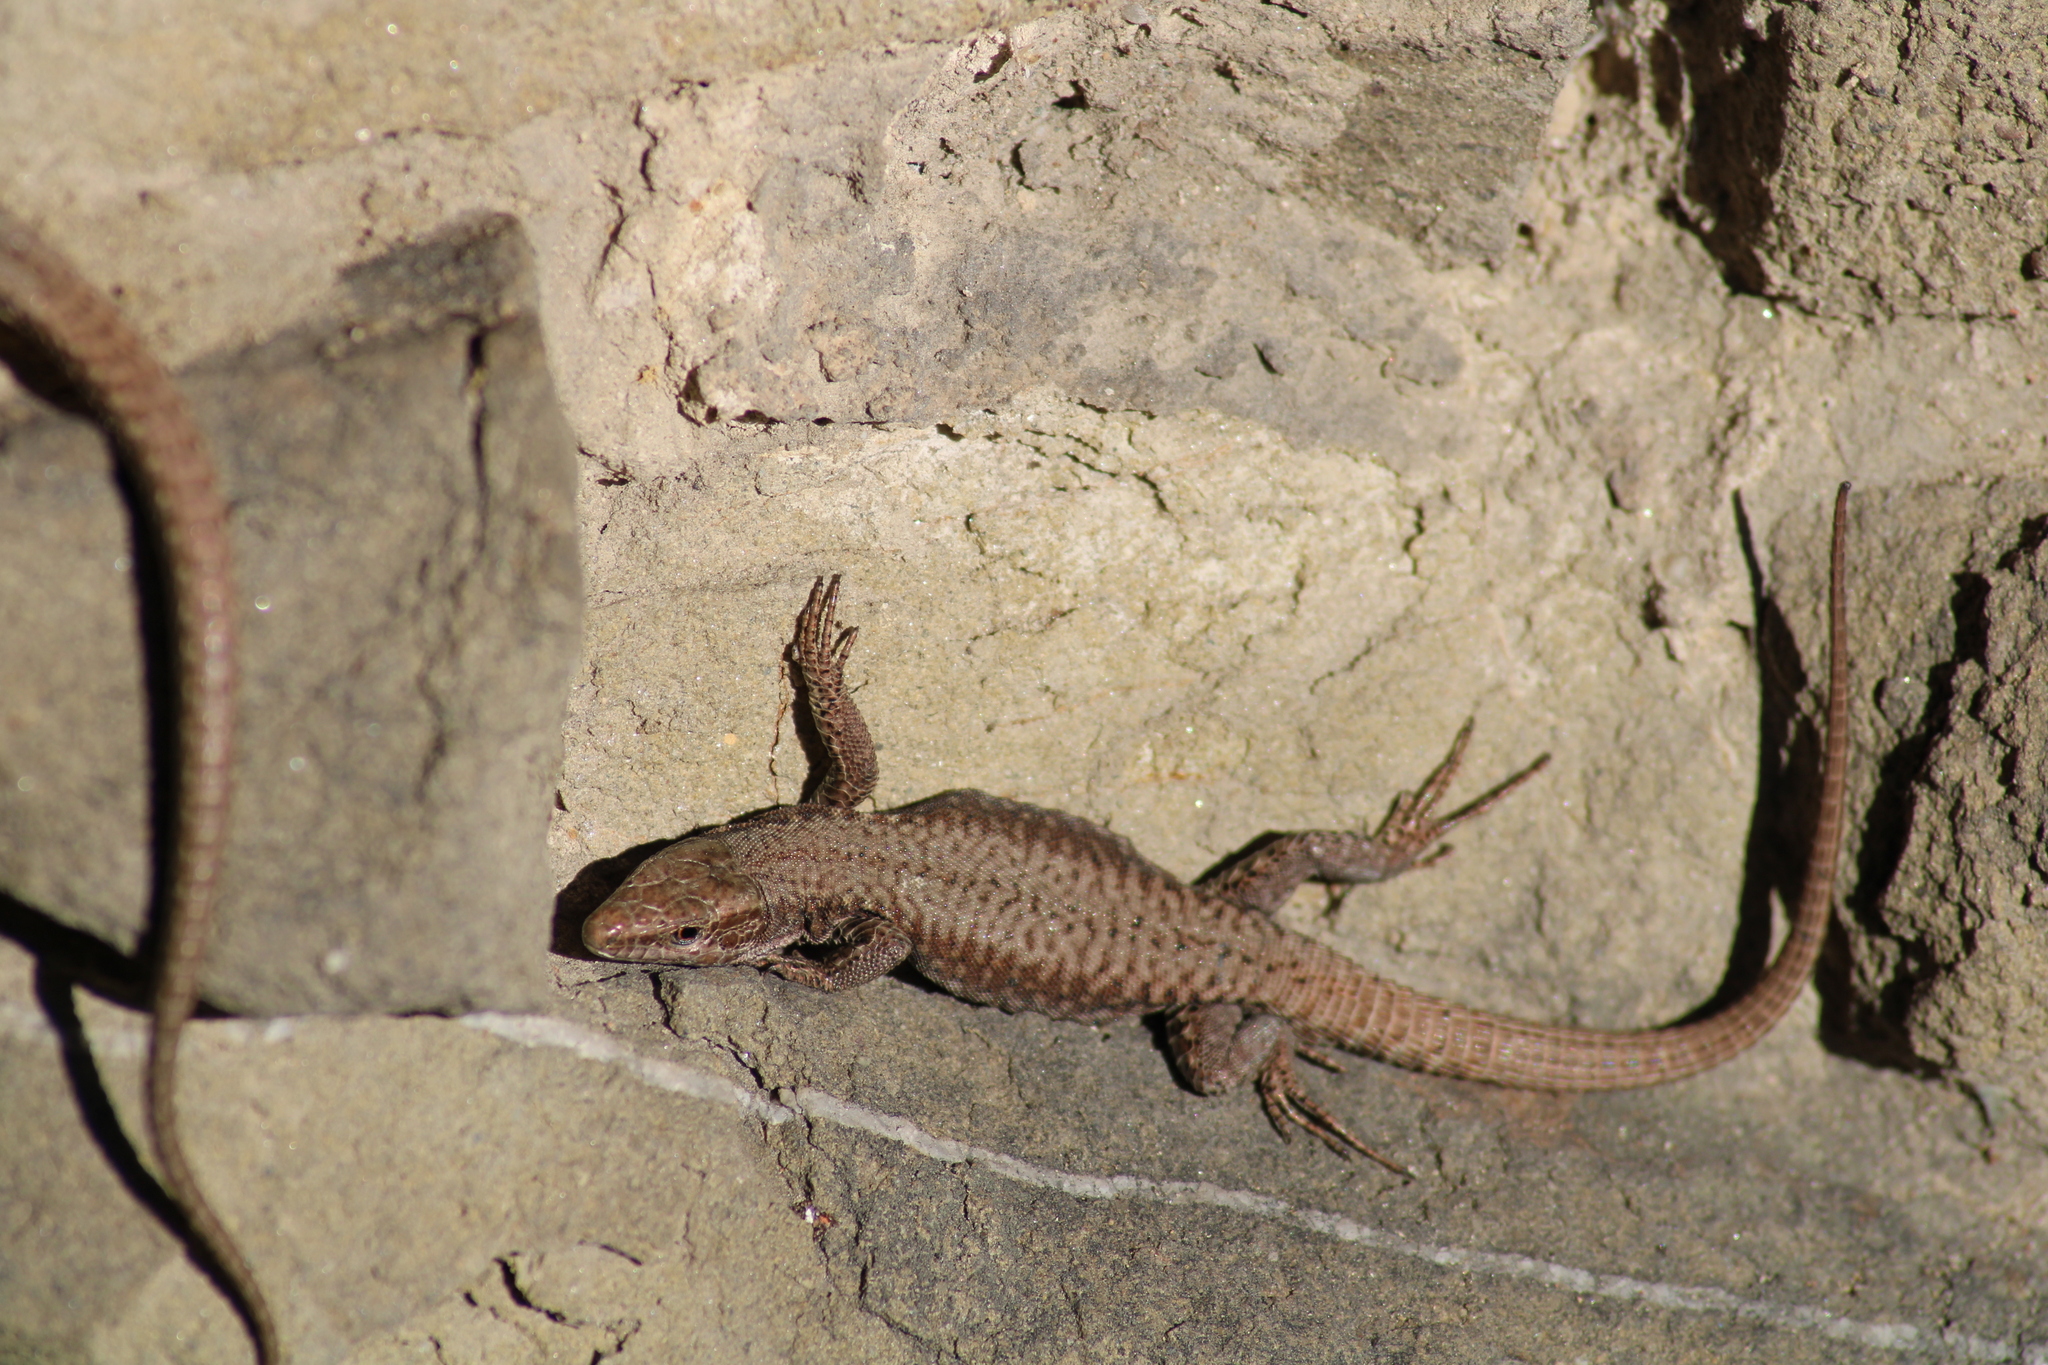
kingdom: Animalia
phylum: Chordata
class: Squamata
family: Lacertidae
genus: Podarcis
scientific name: Podarcis muralis
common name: Common wall lizard
